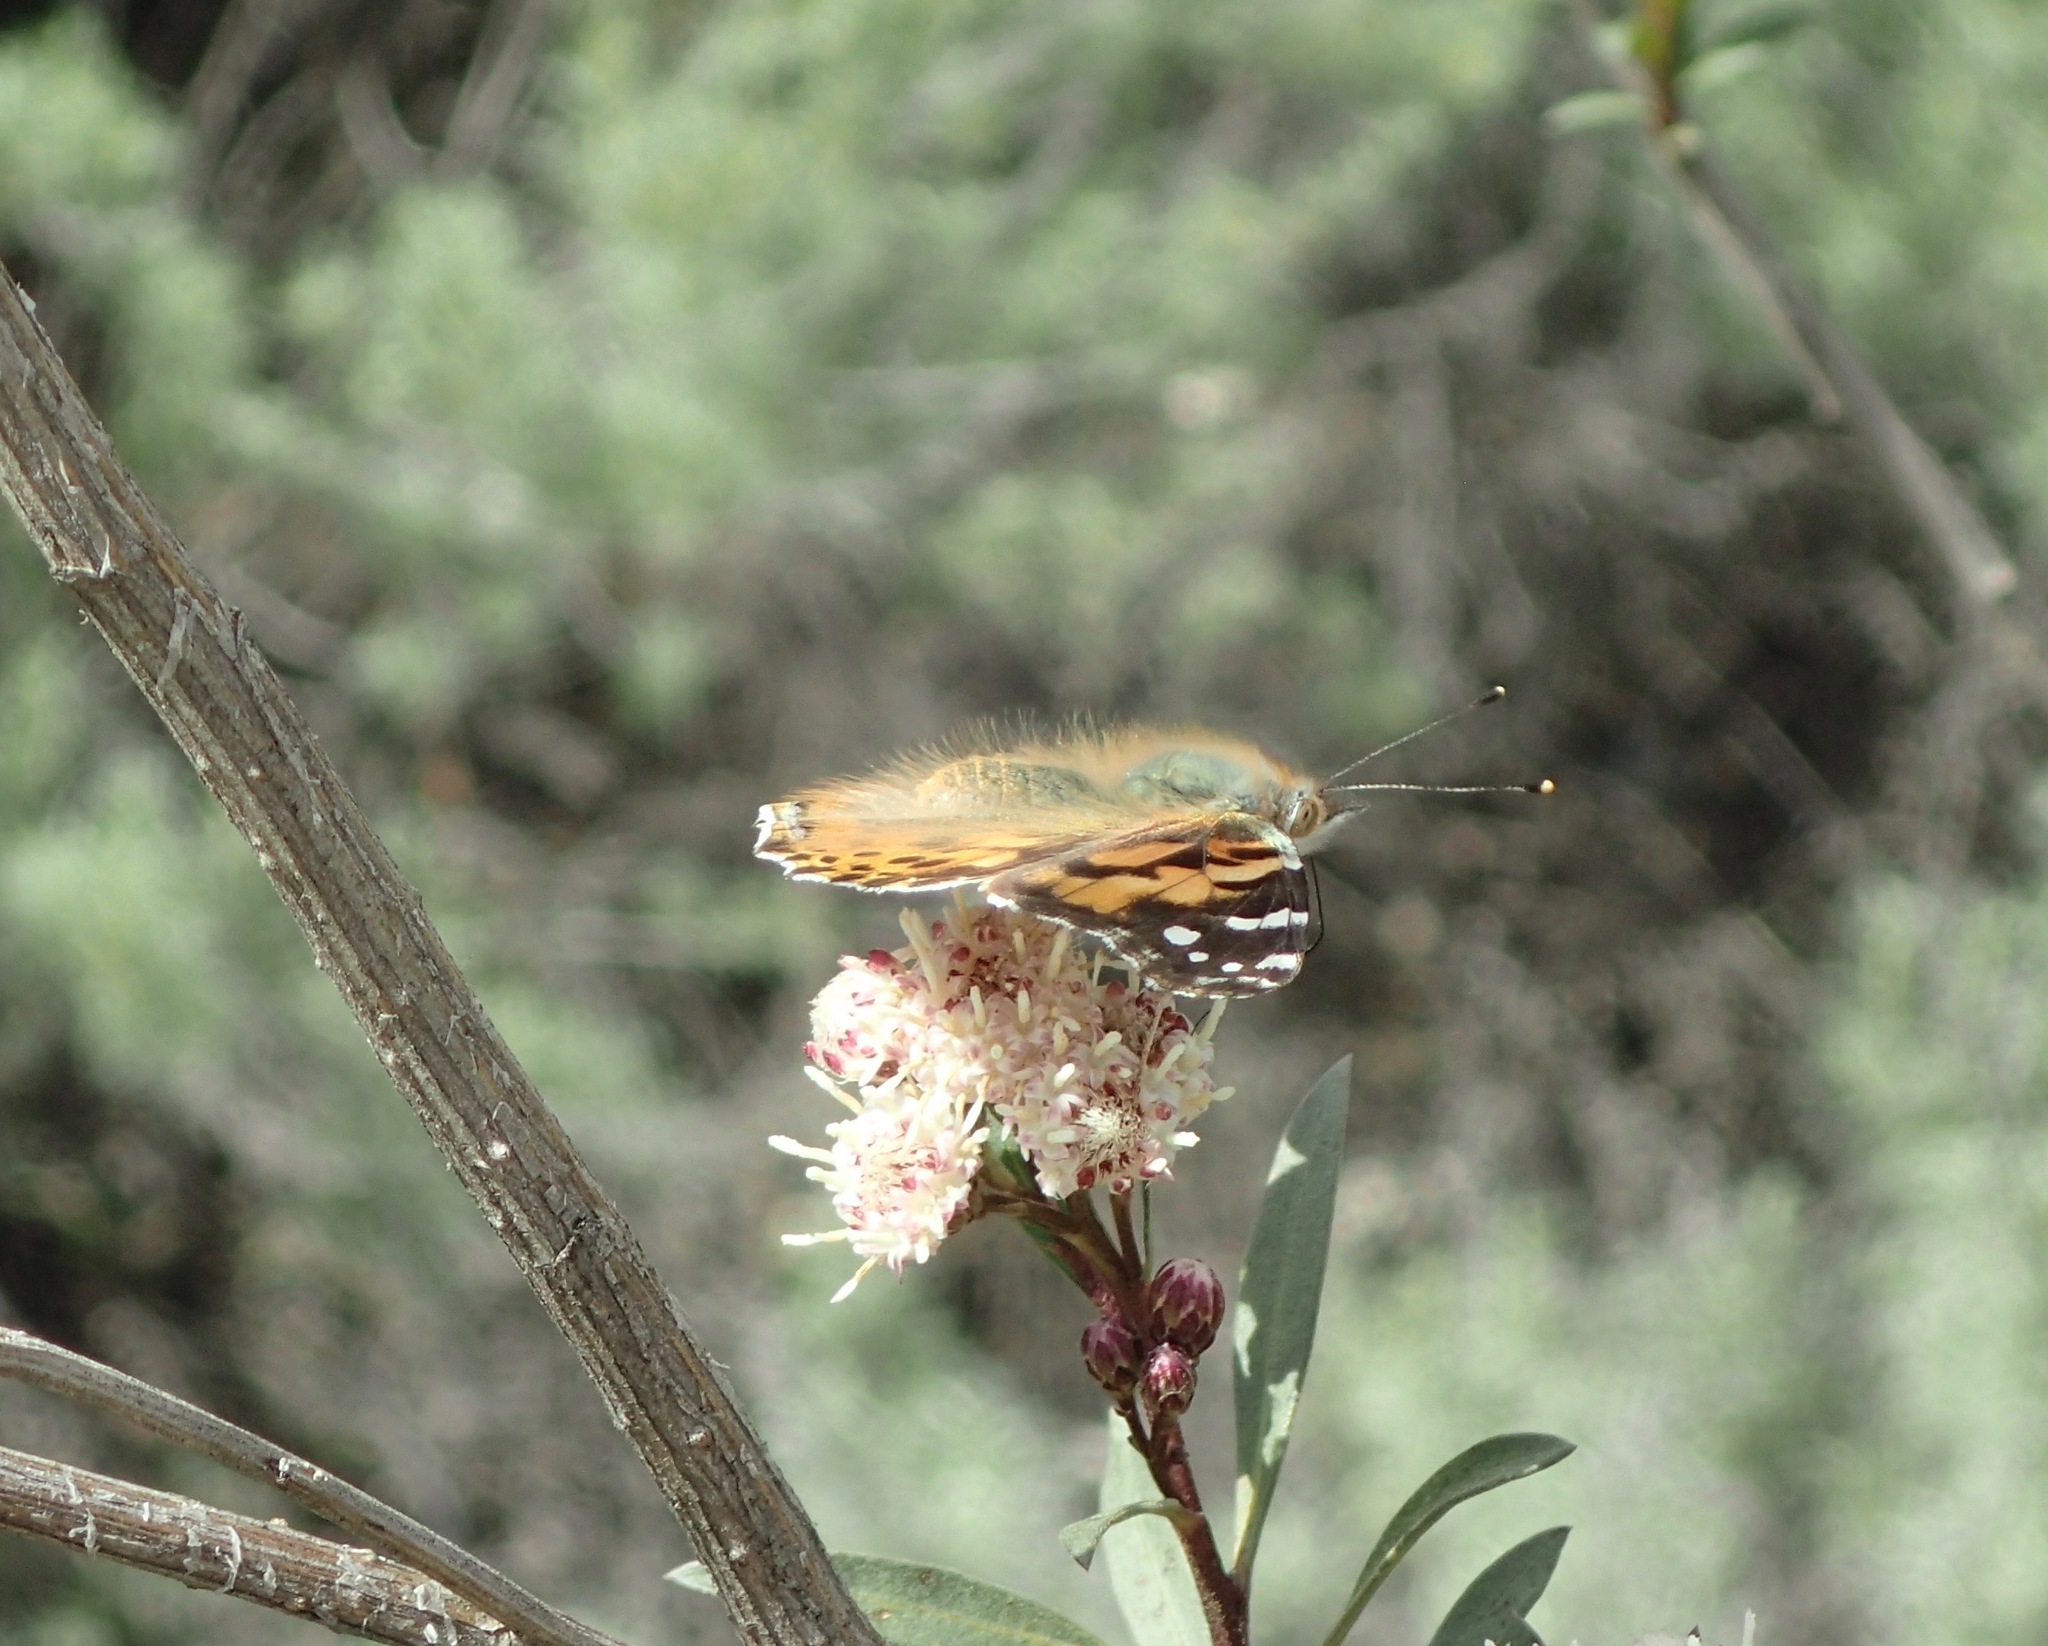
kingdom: Animalia
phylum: Arthropoda
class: Insecta
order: Lepidoptera
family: Nymphalidae
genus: Vanessa
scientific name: Vanessa cardui
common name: Painted lady
